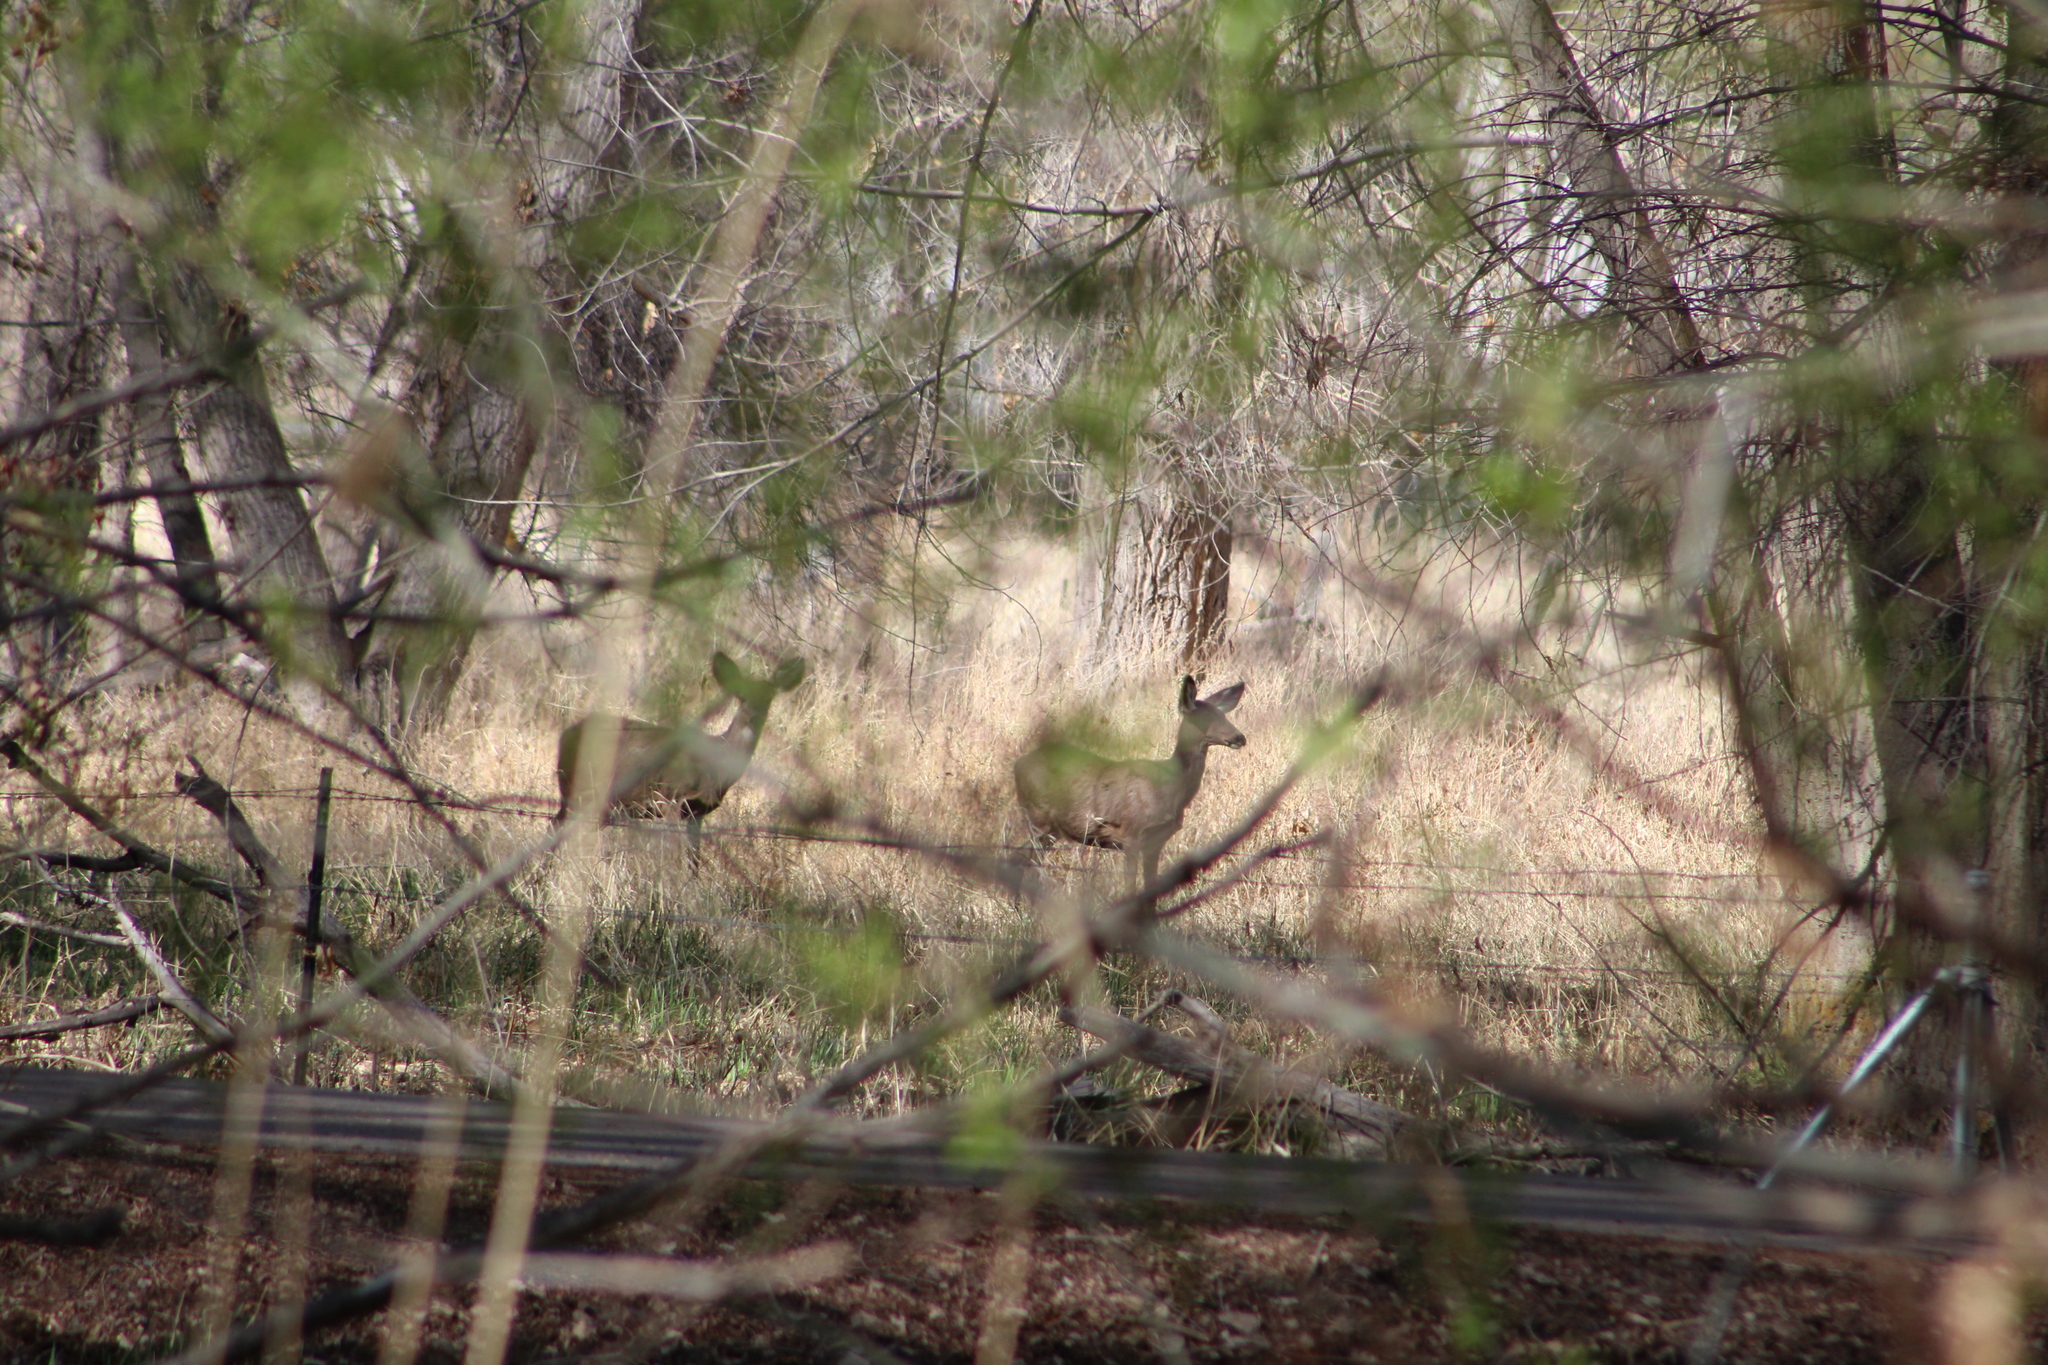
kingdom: Animalia
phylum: Chordata
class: Mammalia
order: Artiodactyla
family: Cervidae
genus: Odocoileus
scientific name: Odocoileus hemionus
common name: Mule deer
